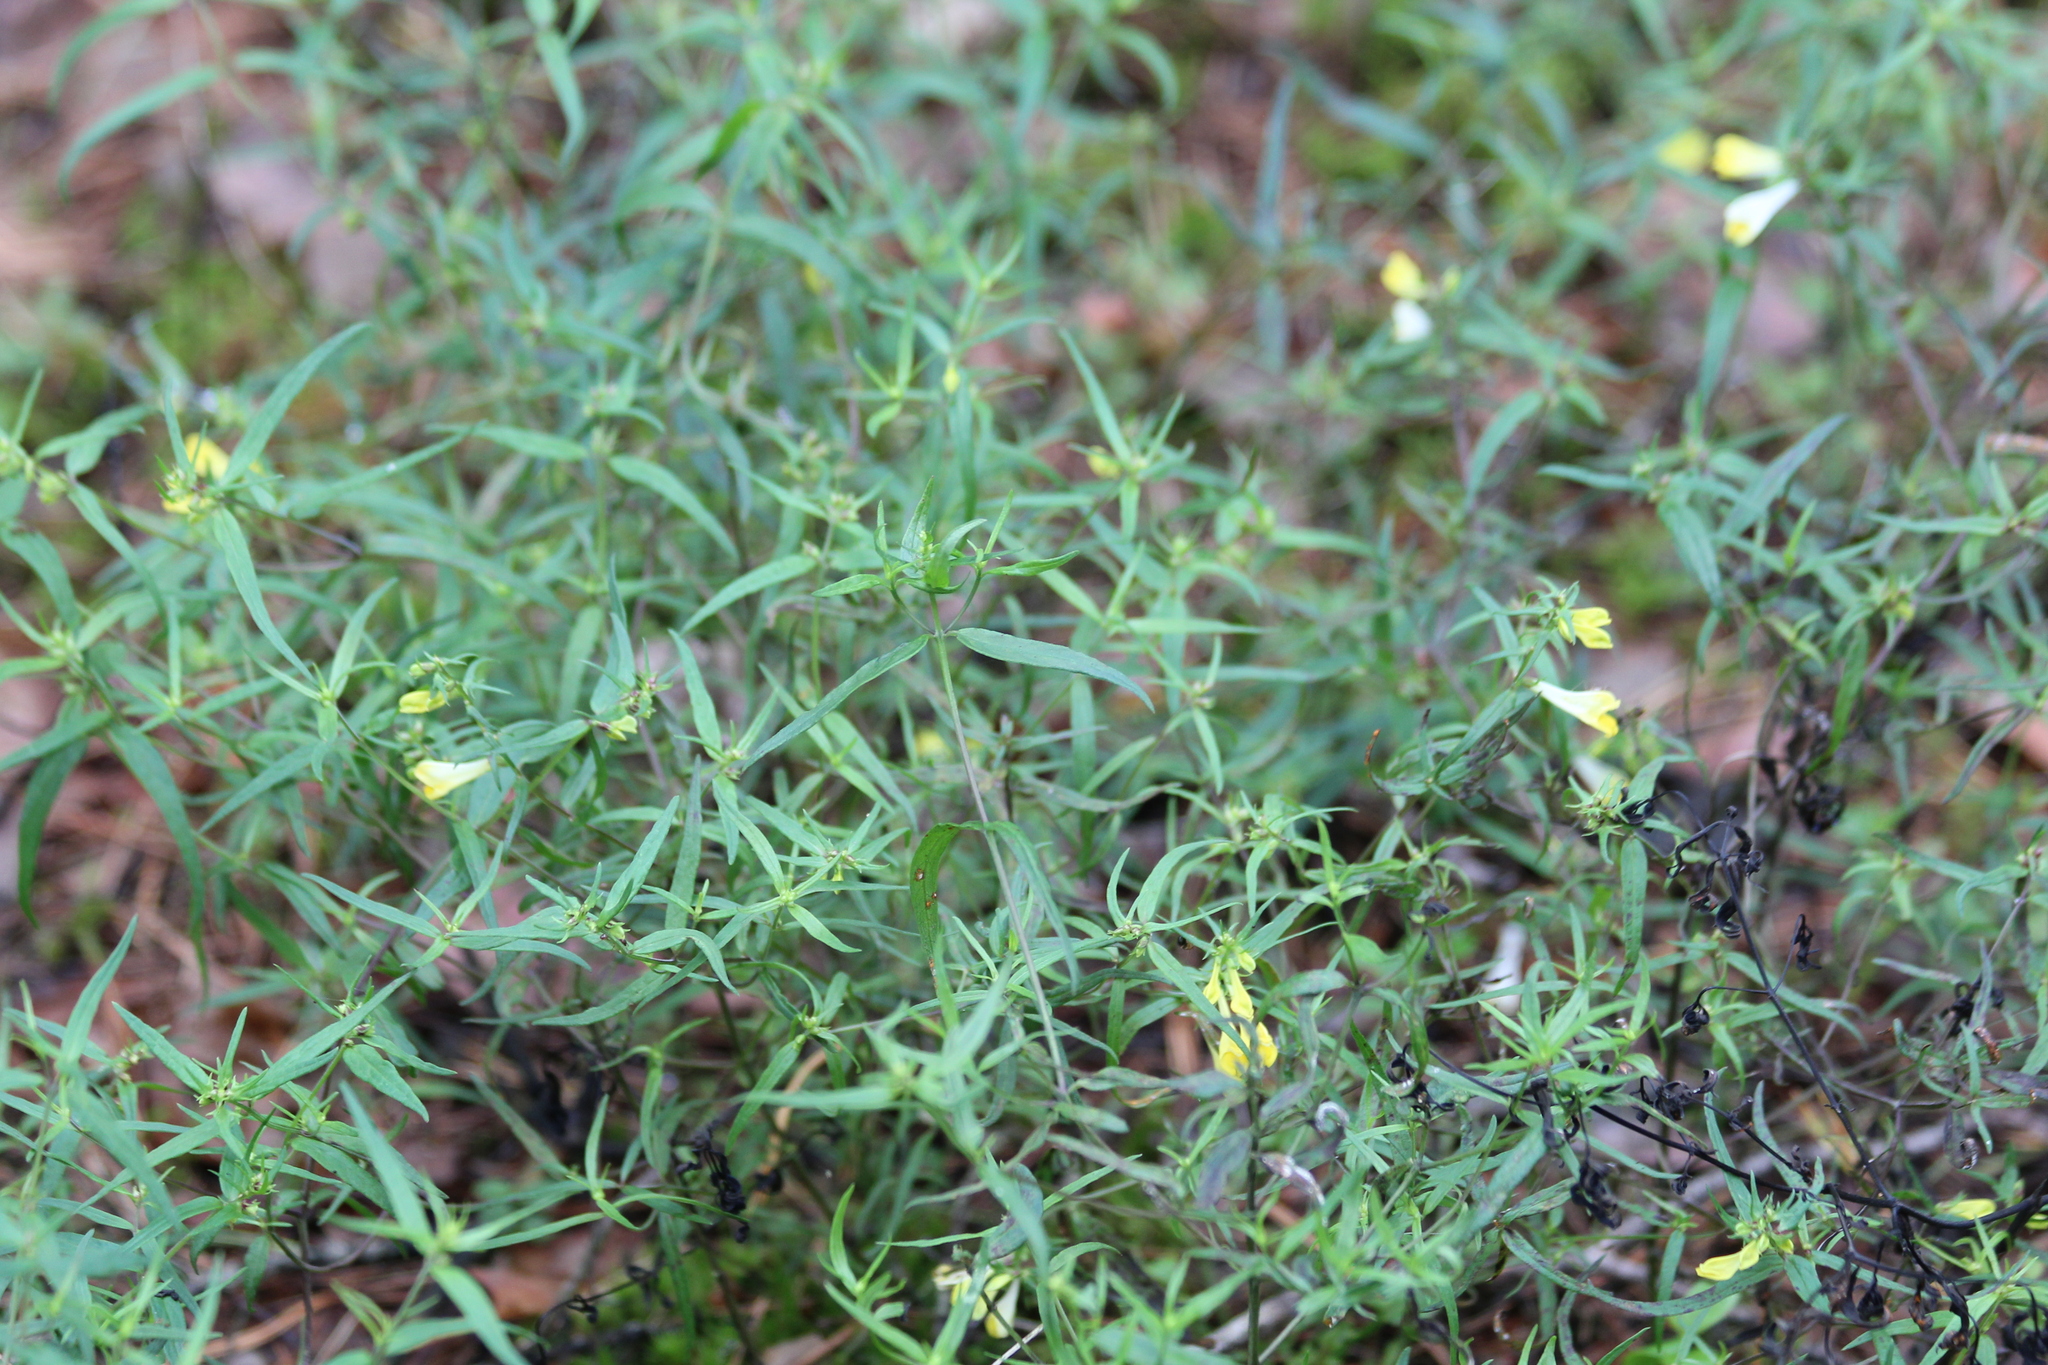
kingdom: Plantae
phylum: Tracheophyta
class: Magnoliopsida
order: Lamiales
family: Orobanchaceae
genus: Melampyrum
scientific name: Melampyrum pratense
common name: Common cow-wheat
